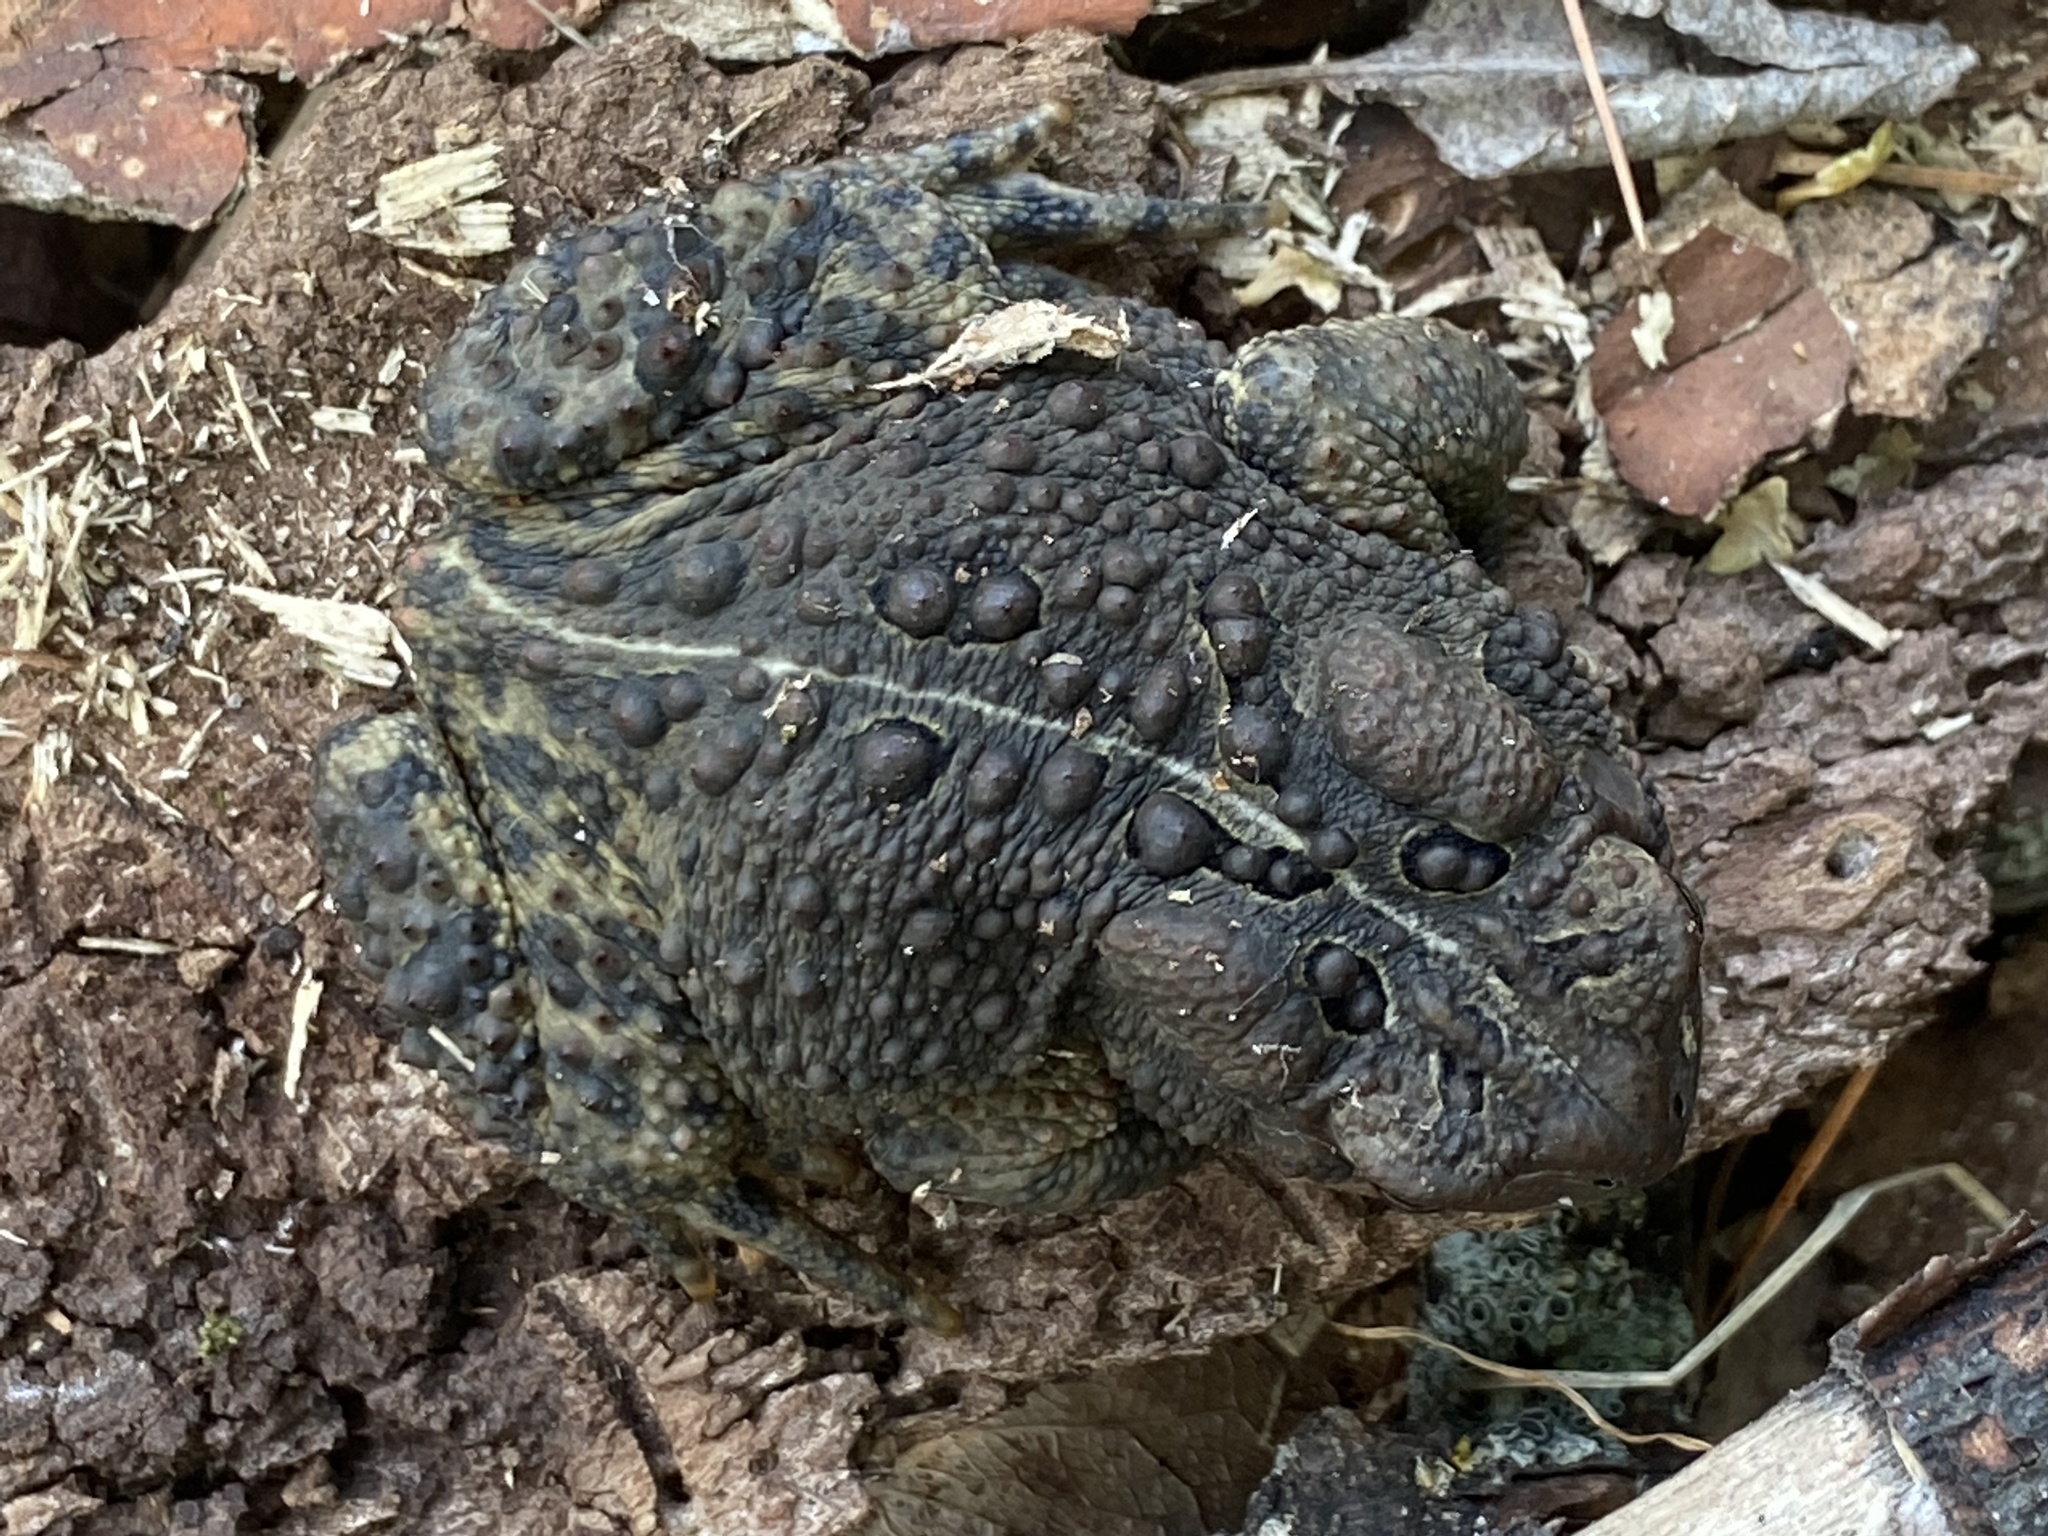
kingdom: Animalia
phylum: Chordata
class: Amphibia
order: Anura
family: Bufonidae
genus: Anaxyrus
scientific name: Anaxyrus americanus
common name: American toad
